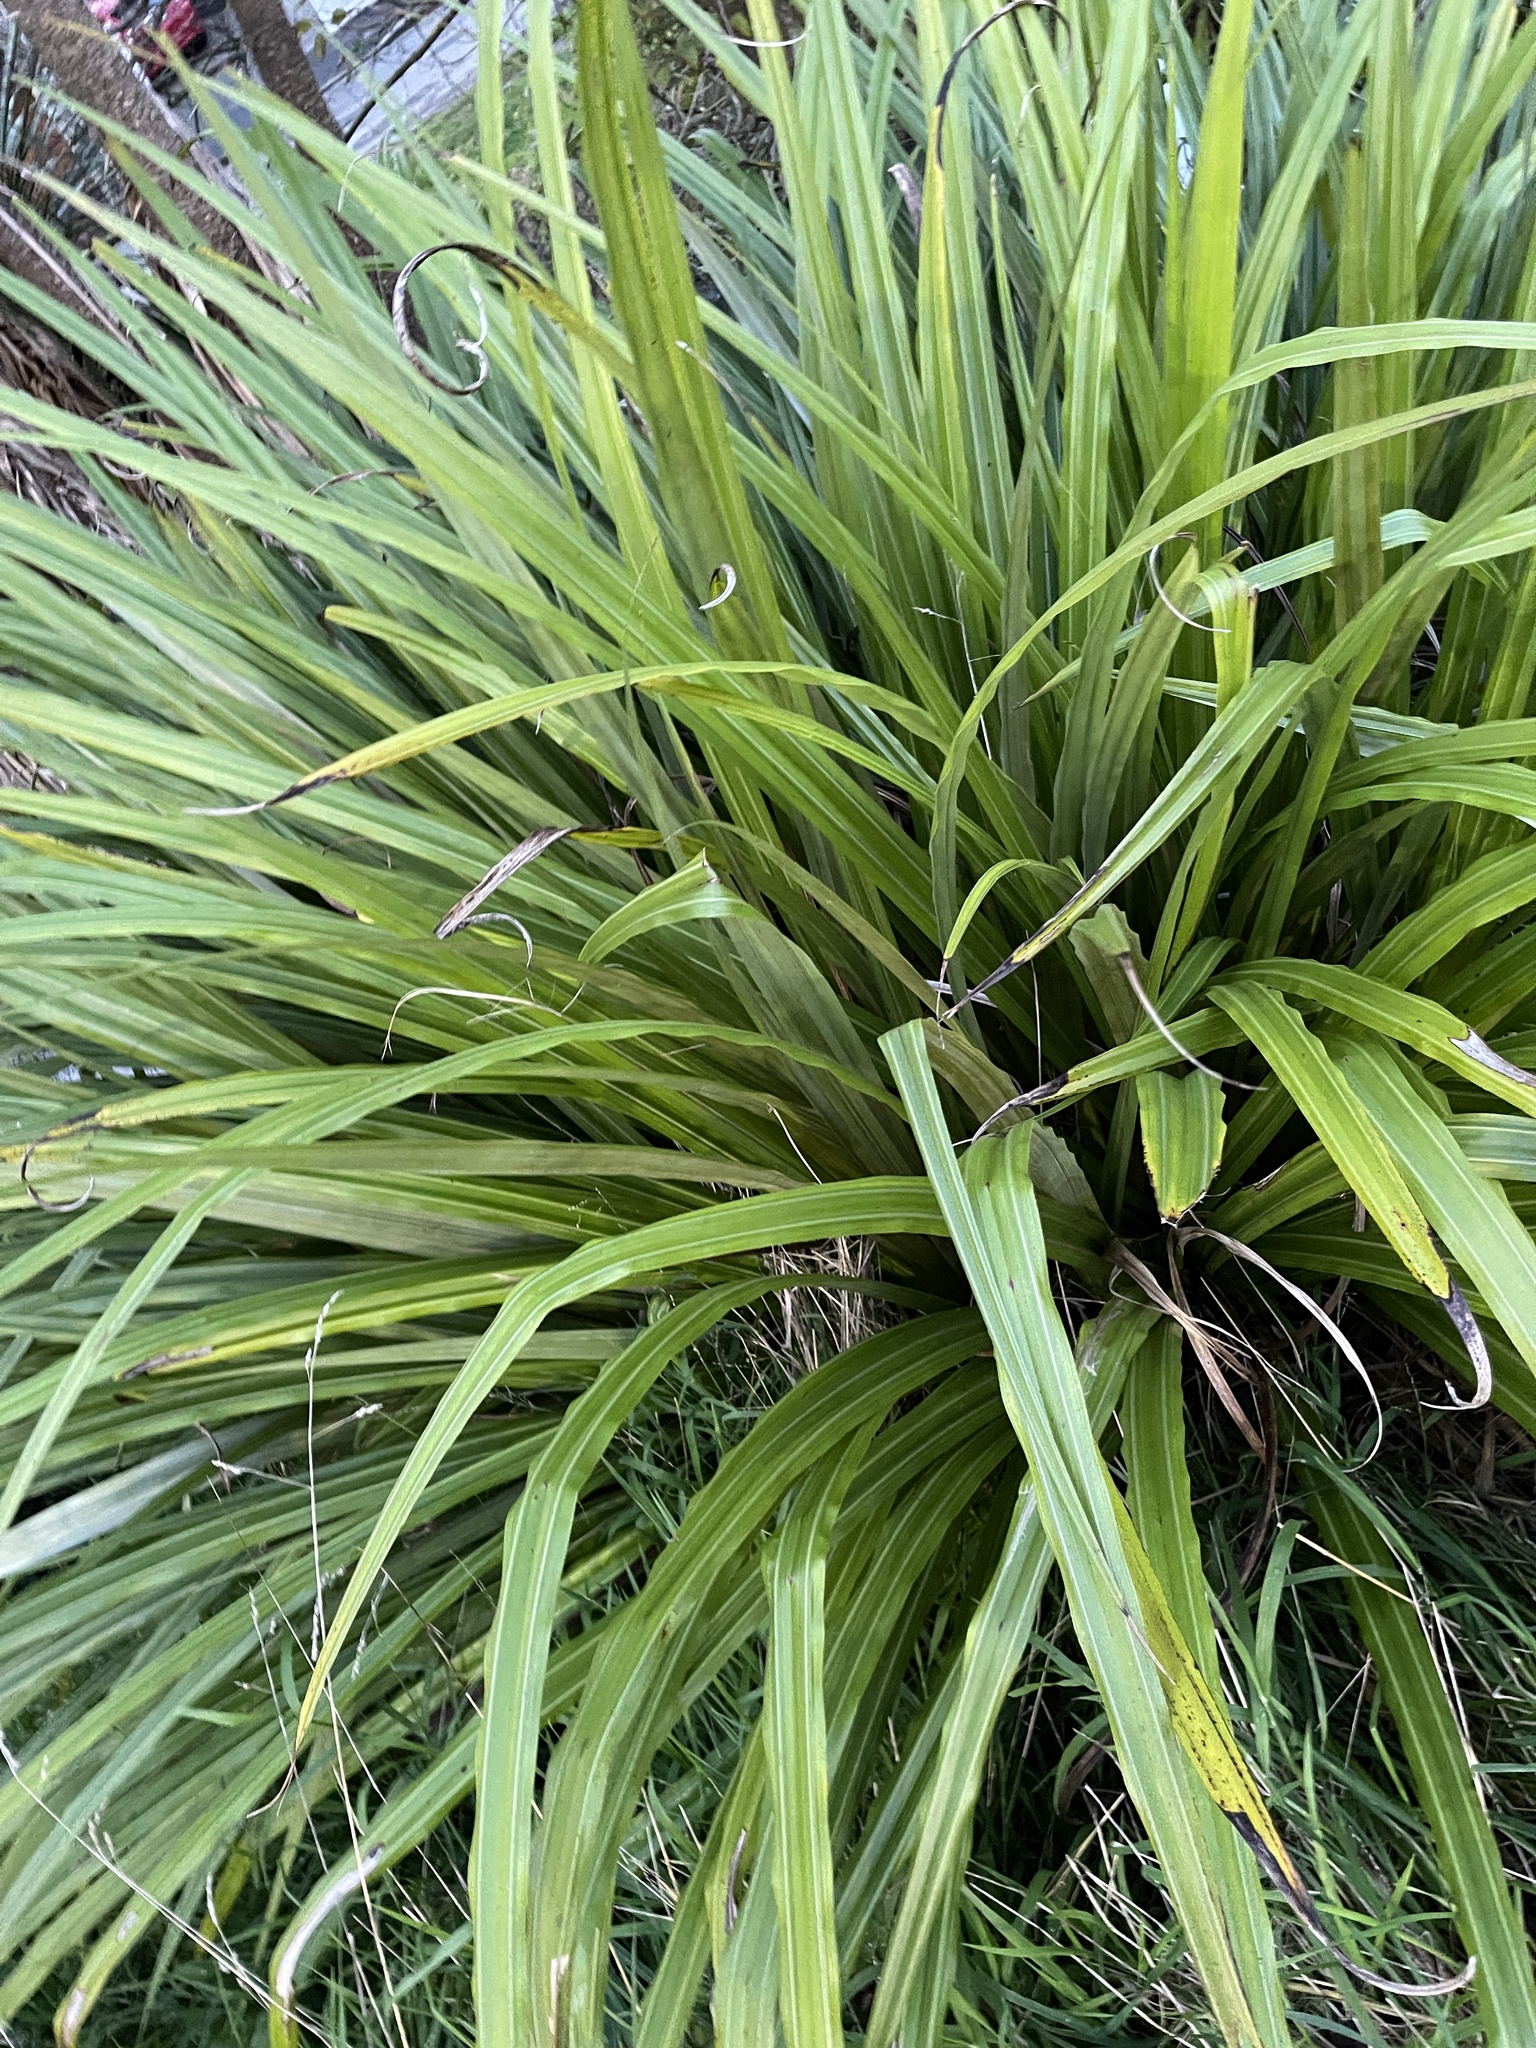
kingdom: Plantae
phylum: Tracheophyta
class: Liliopsida
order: Asparagales
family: Asteliaceae
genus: Astelia
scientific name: Astelia fragrans
